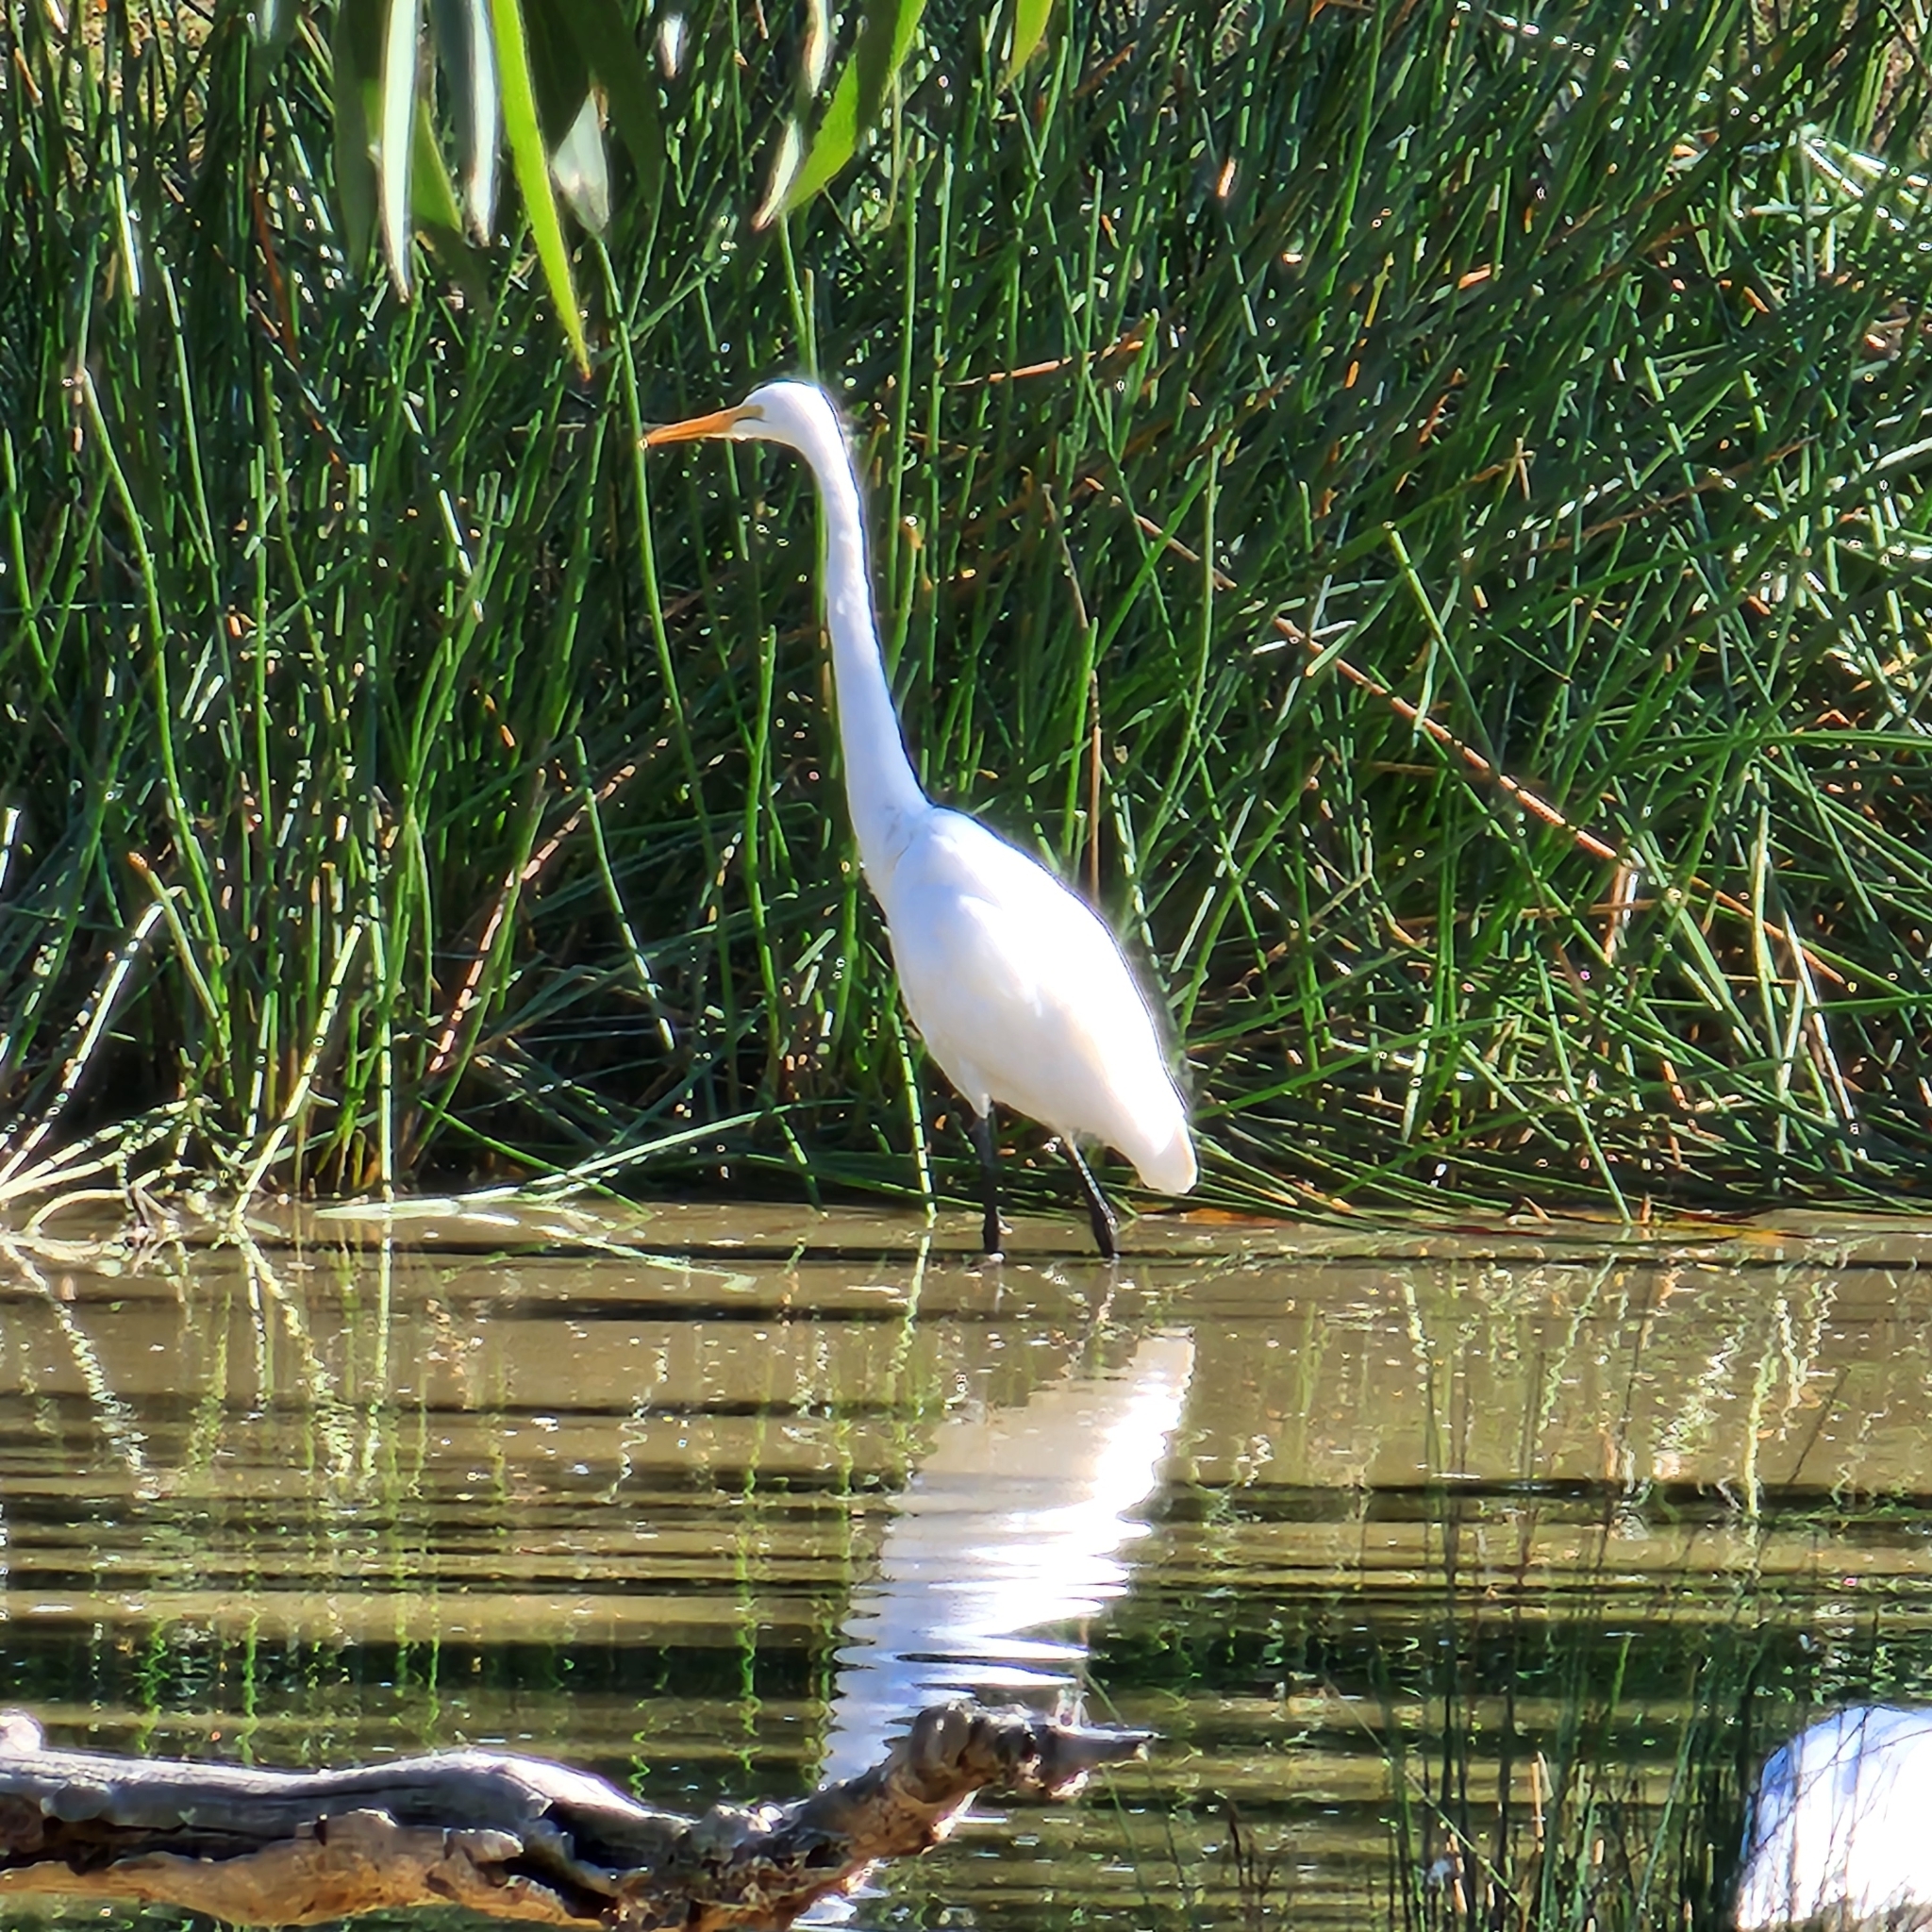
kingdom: Animalia
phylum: Chordata
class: Aves
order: Pelecaniformes
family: Ardeidae
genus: Ardea
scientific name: Ardea alba
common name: Great egret
